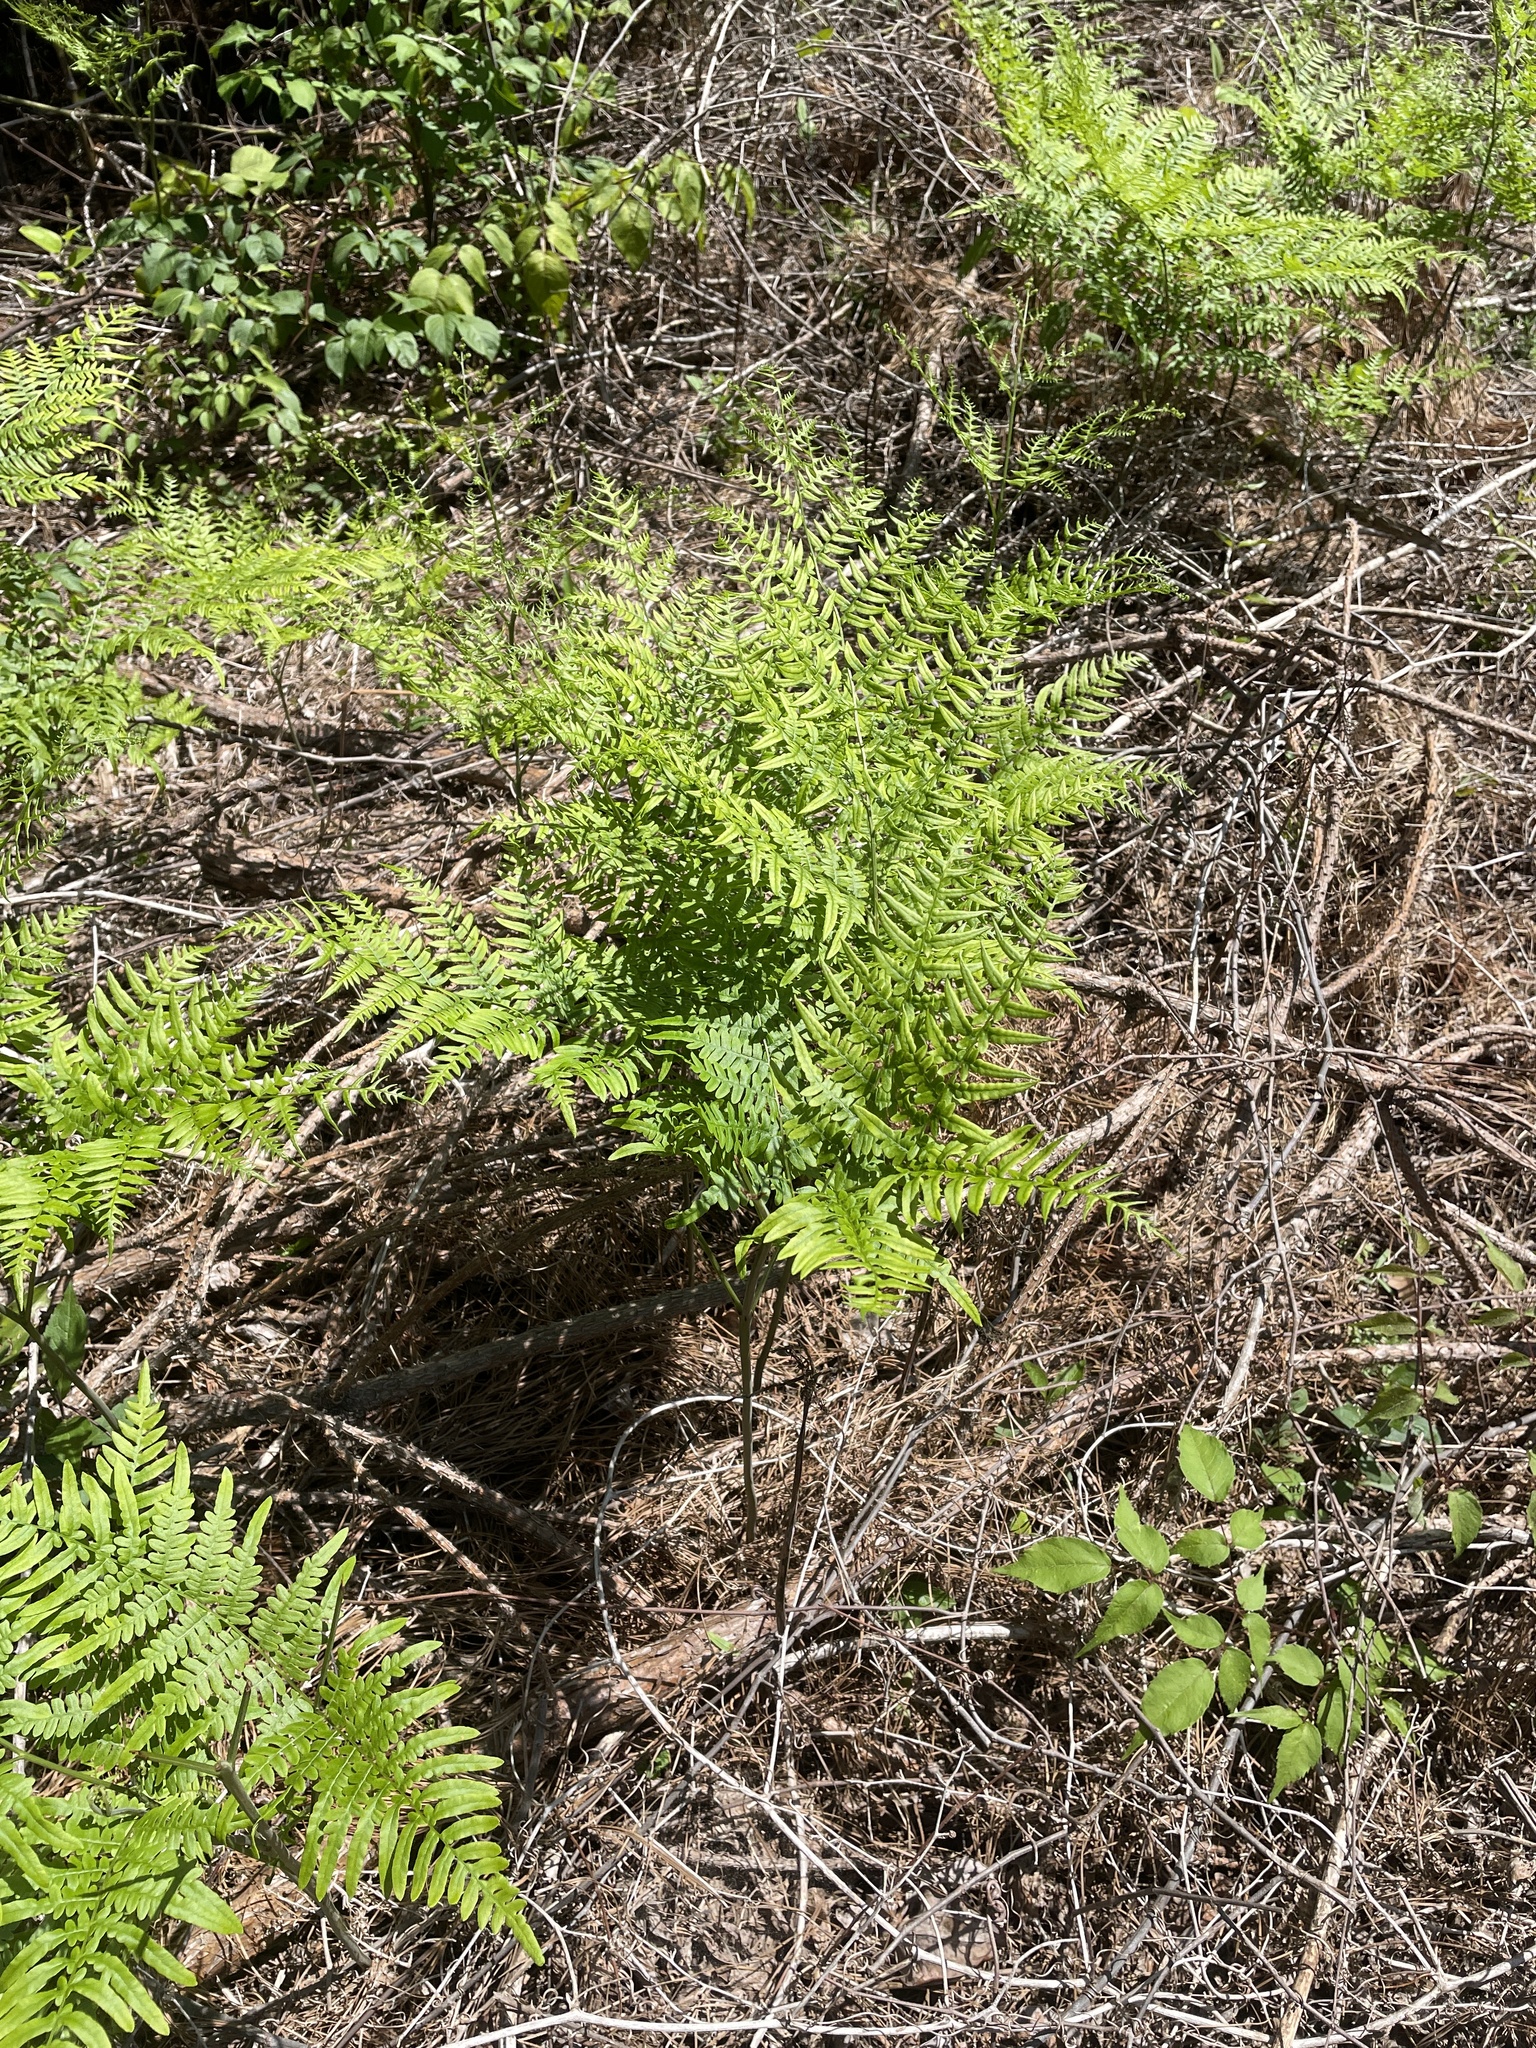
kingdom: Plantae
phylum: Tracheophyta
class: Polypodiopsida
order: Polypodiales
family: Dennstaedtiaceae
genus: Pteridium
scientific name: Pteridium
